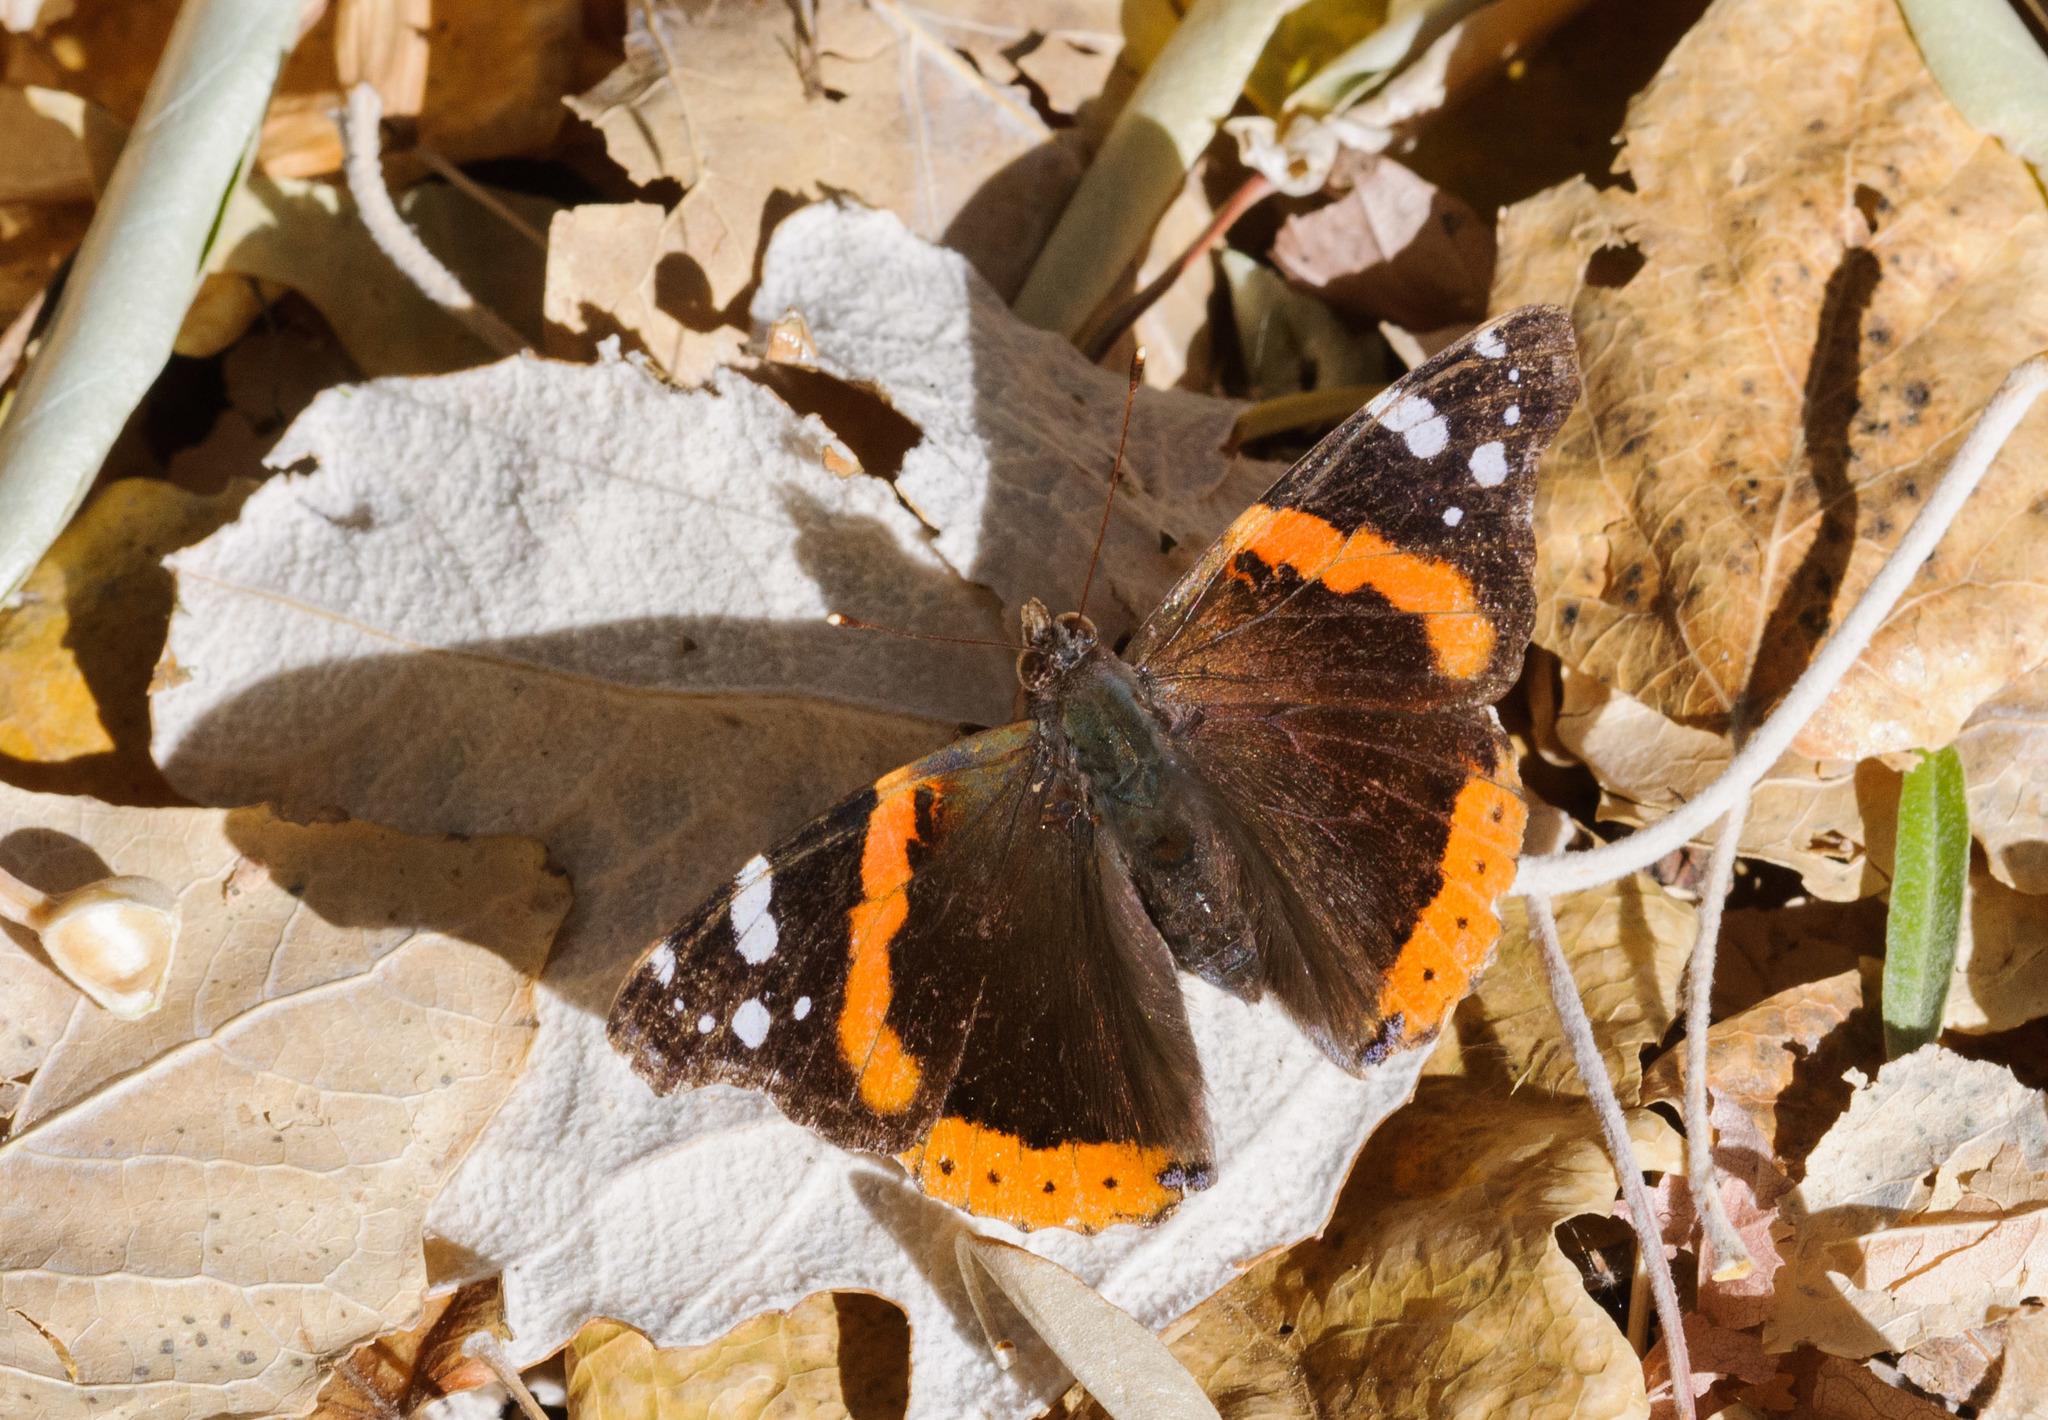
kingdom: Animalia
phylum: Arthropoda
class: Insecta
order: Lepidoptera
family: Nymphalidae
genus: Vanessa
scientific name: Vanessa atalanta
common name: Red admiral
